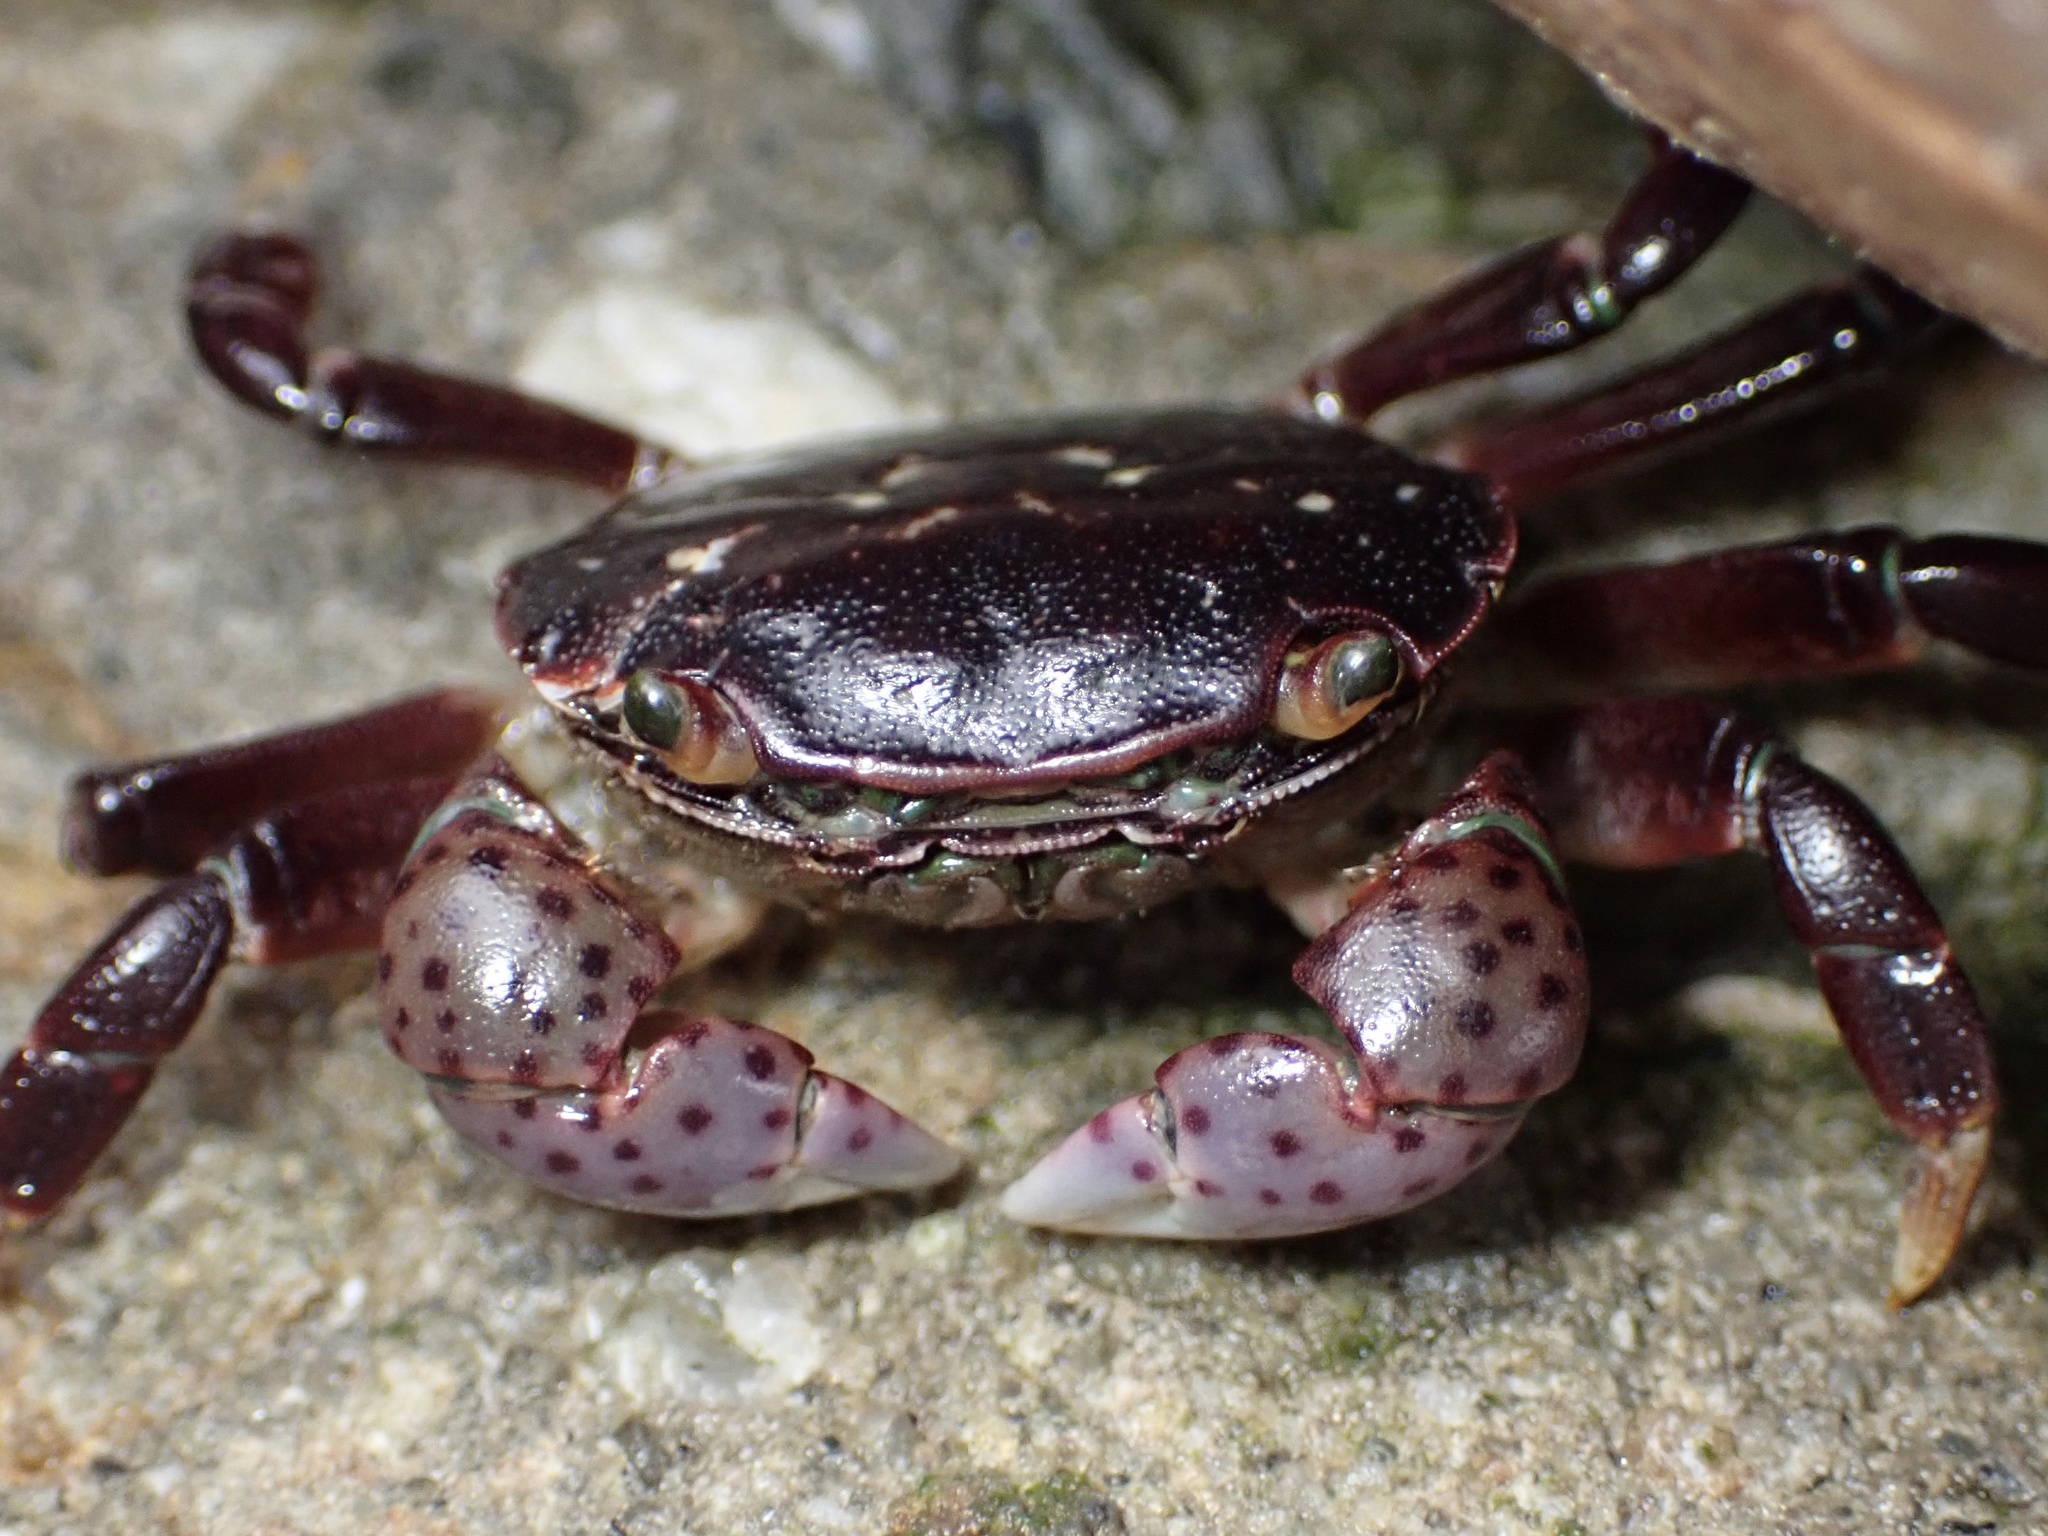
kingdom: Animalia
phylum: Arthropoda
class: Malacostraca
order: Decapoda
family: Varunidae
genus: Hemigrapsus
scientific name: Hemigrapsus nudus
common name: Purple shore crab
